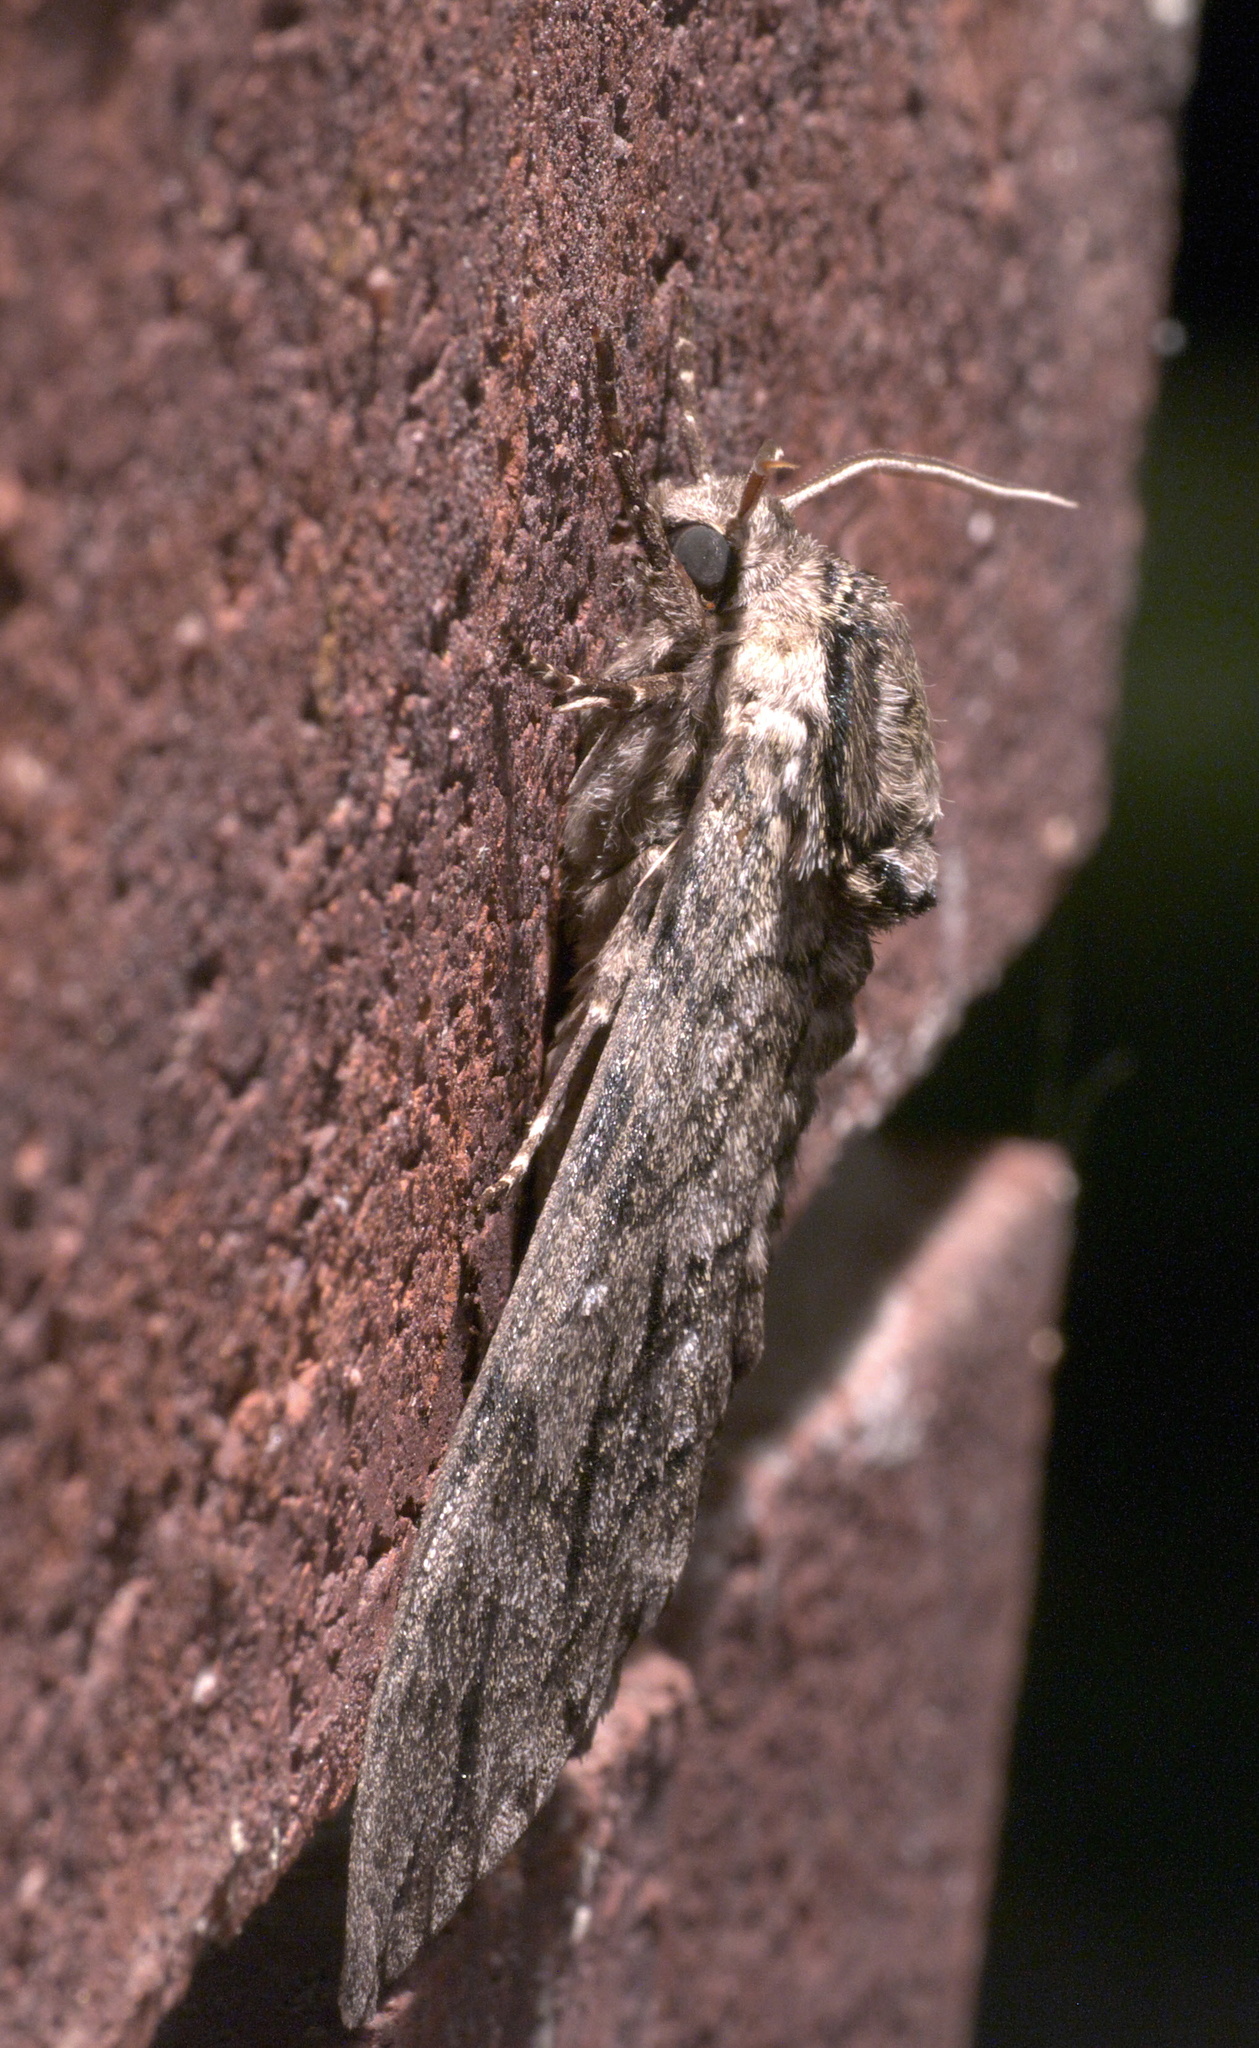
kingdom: Animalia
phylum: Arthropoda
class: Insecta
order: Lepidoptera
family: Sphingidae
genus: Ceratomia
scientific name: Ceratomia undulosa
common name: Waved sphinx
